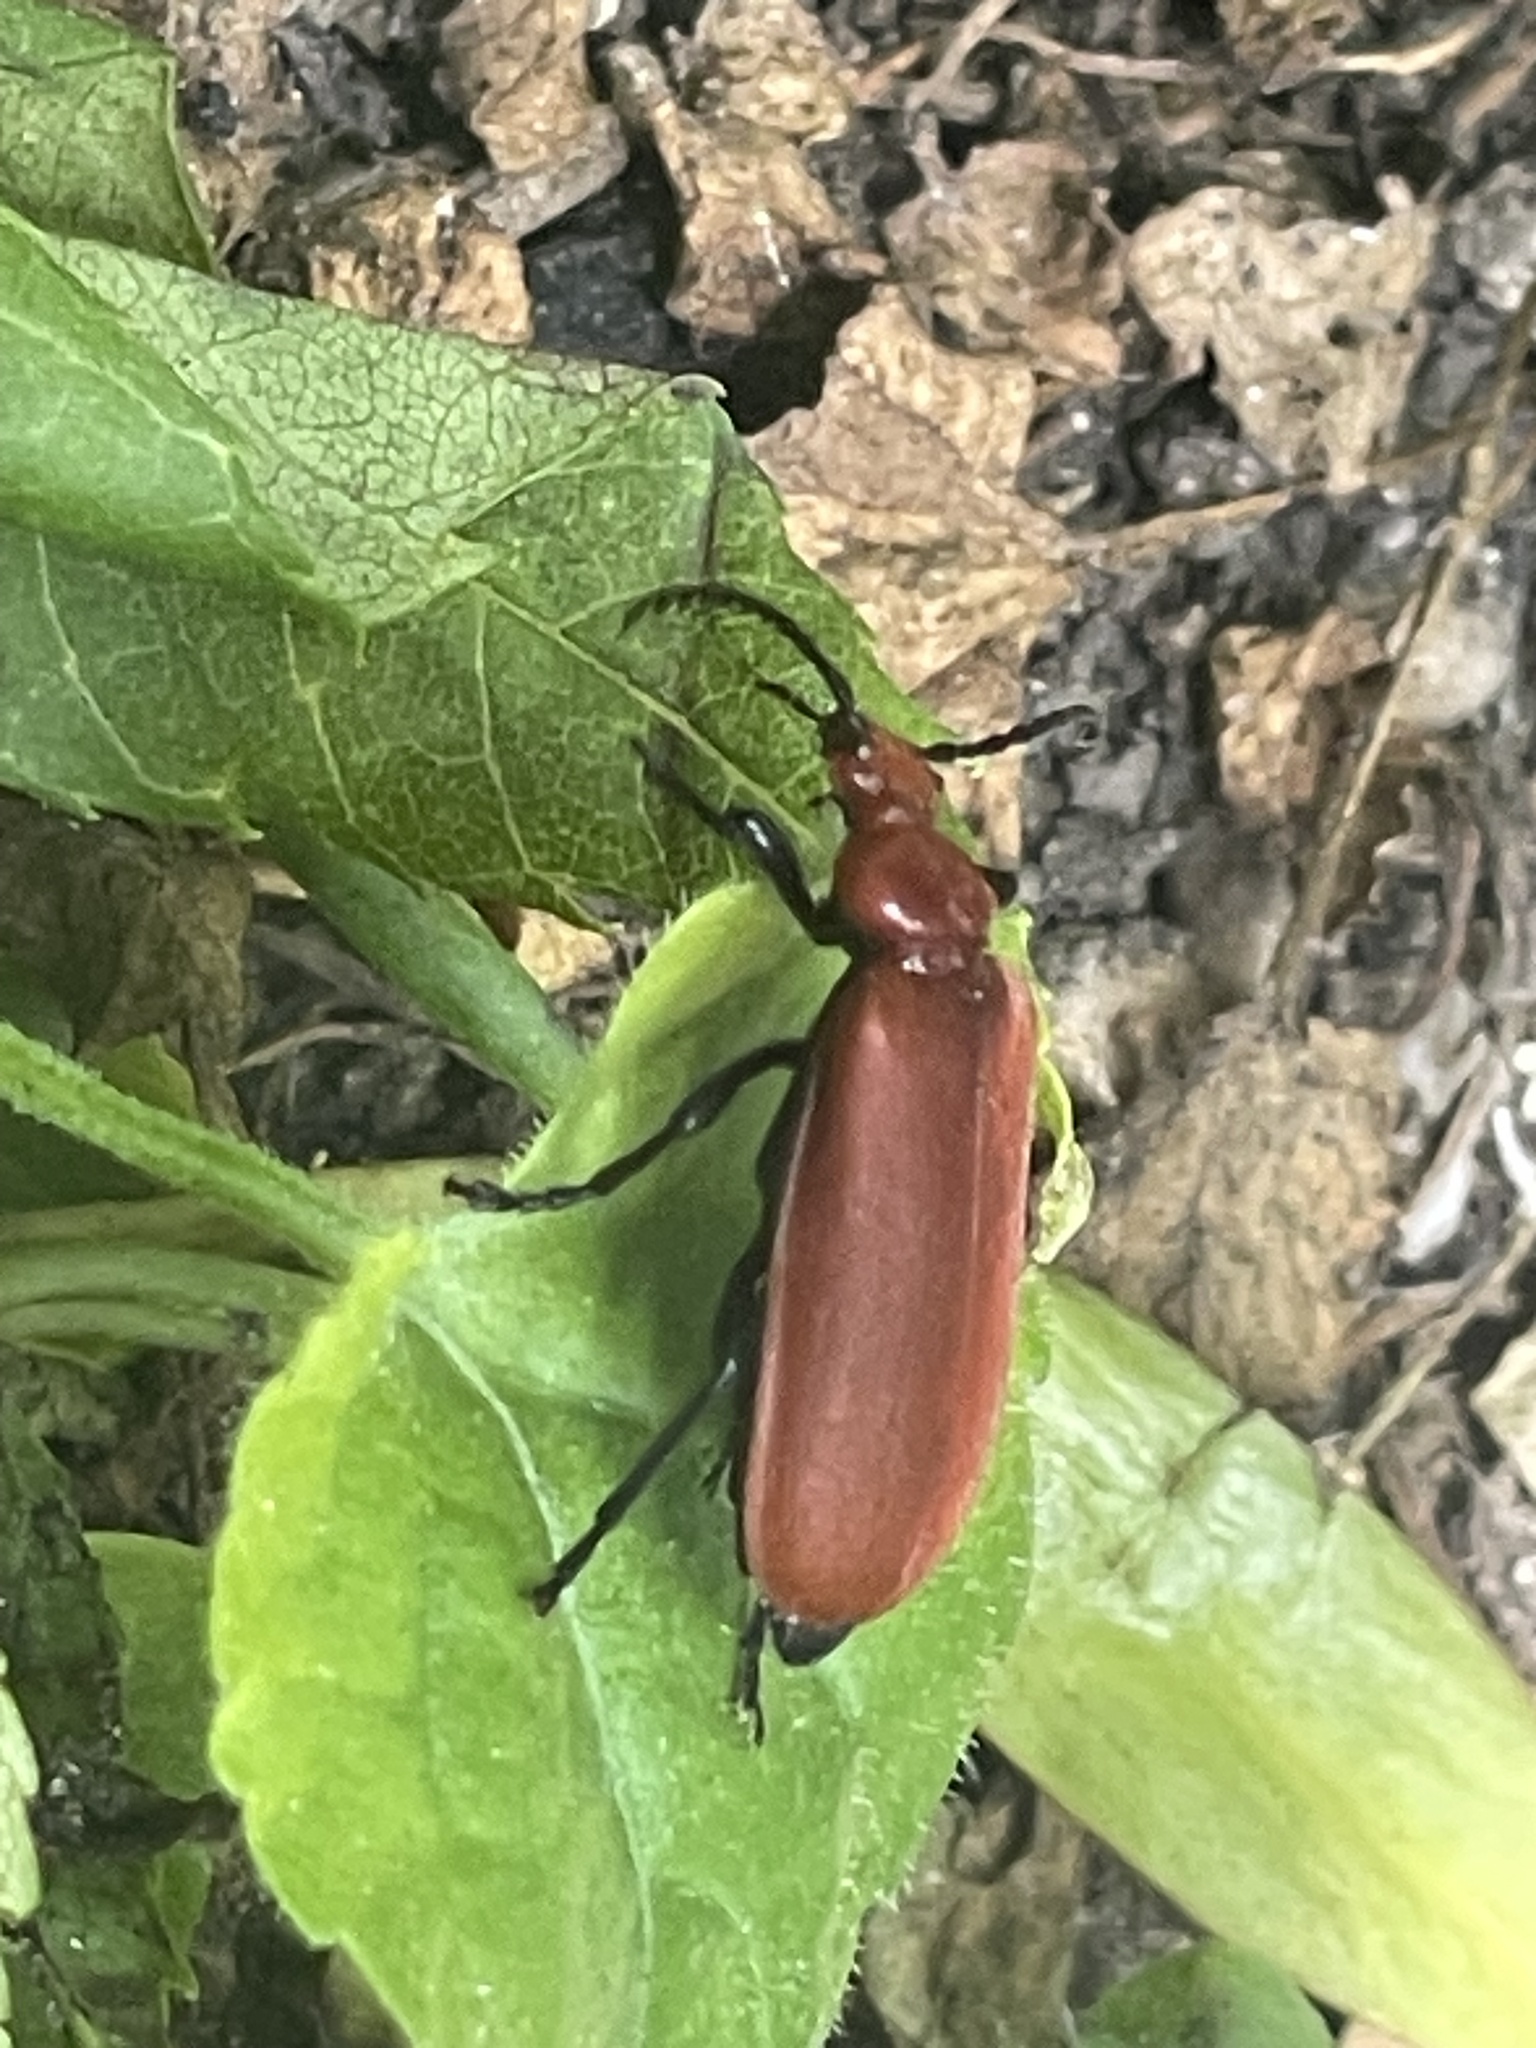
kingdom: Animalia
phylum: Arthropoda
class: Insecta
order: Coleoptera
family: Pyrochroidae
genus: Pyrochroa
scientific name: Pyrochroa serraticornis
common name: Red-headed cardinal beetle
